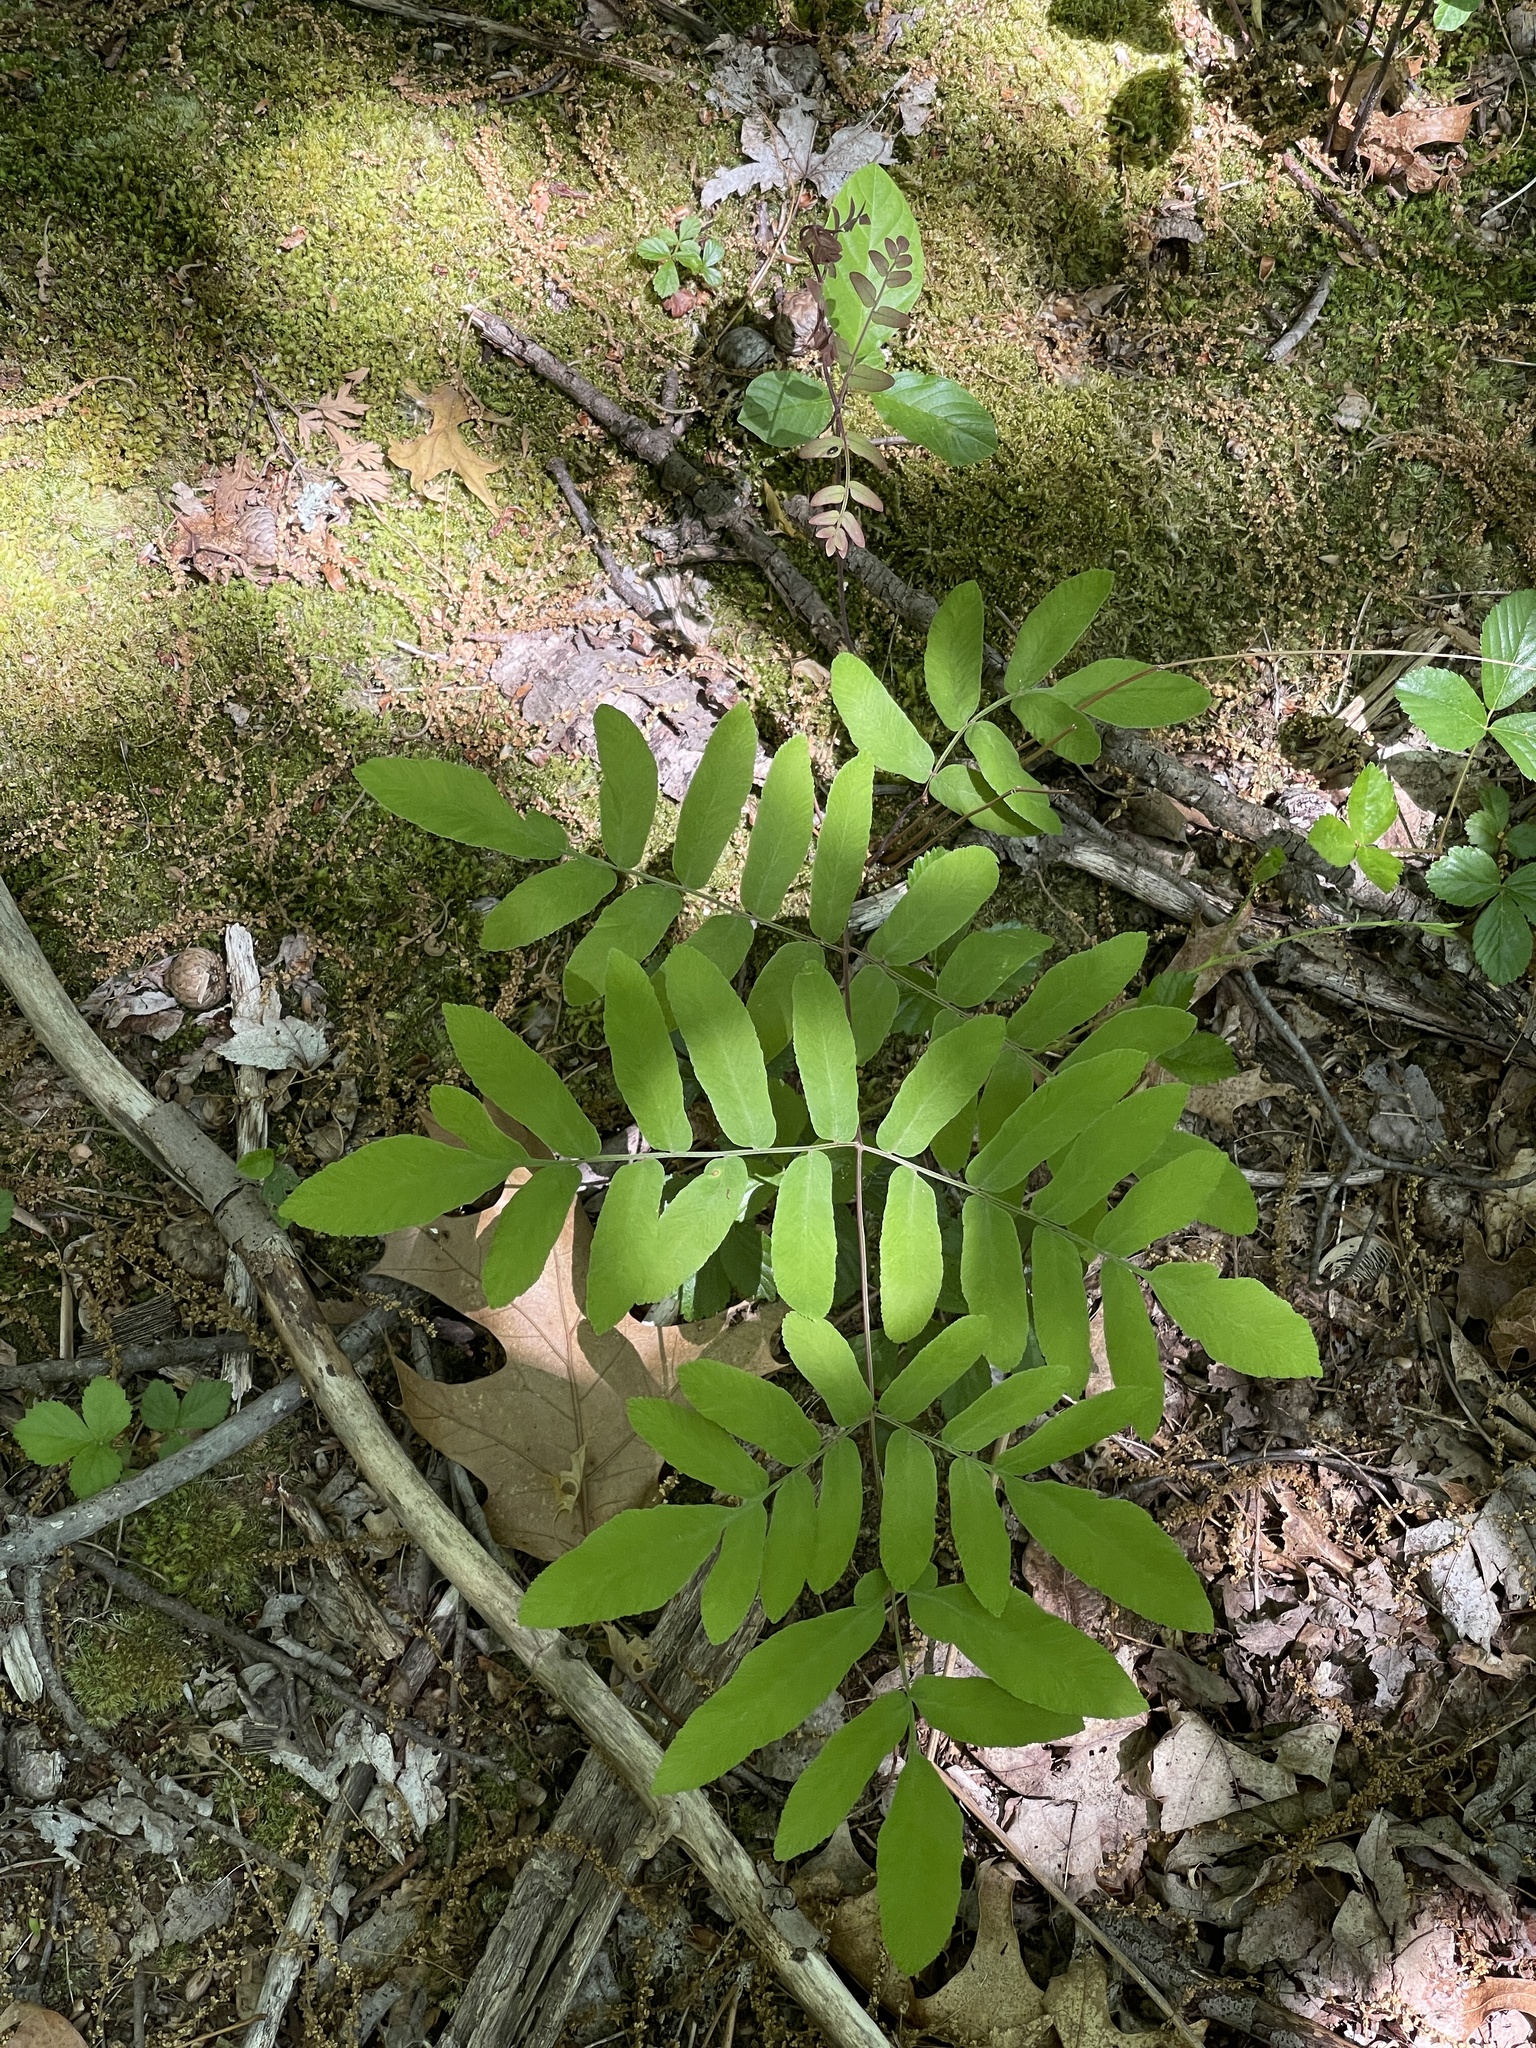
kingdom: Plantae
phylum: Tracheophyta
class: Polypodiopsida
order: Osmundales
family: Osmundaceae
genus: Osmunda
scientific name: Osmunda spectabilis
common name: American royal fern
